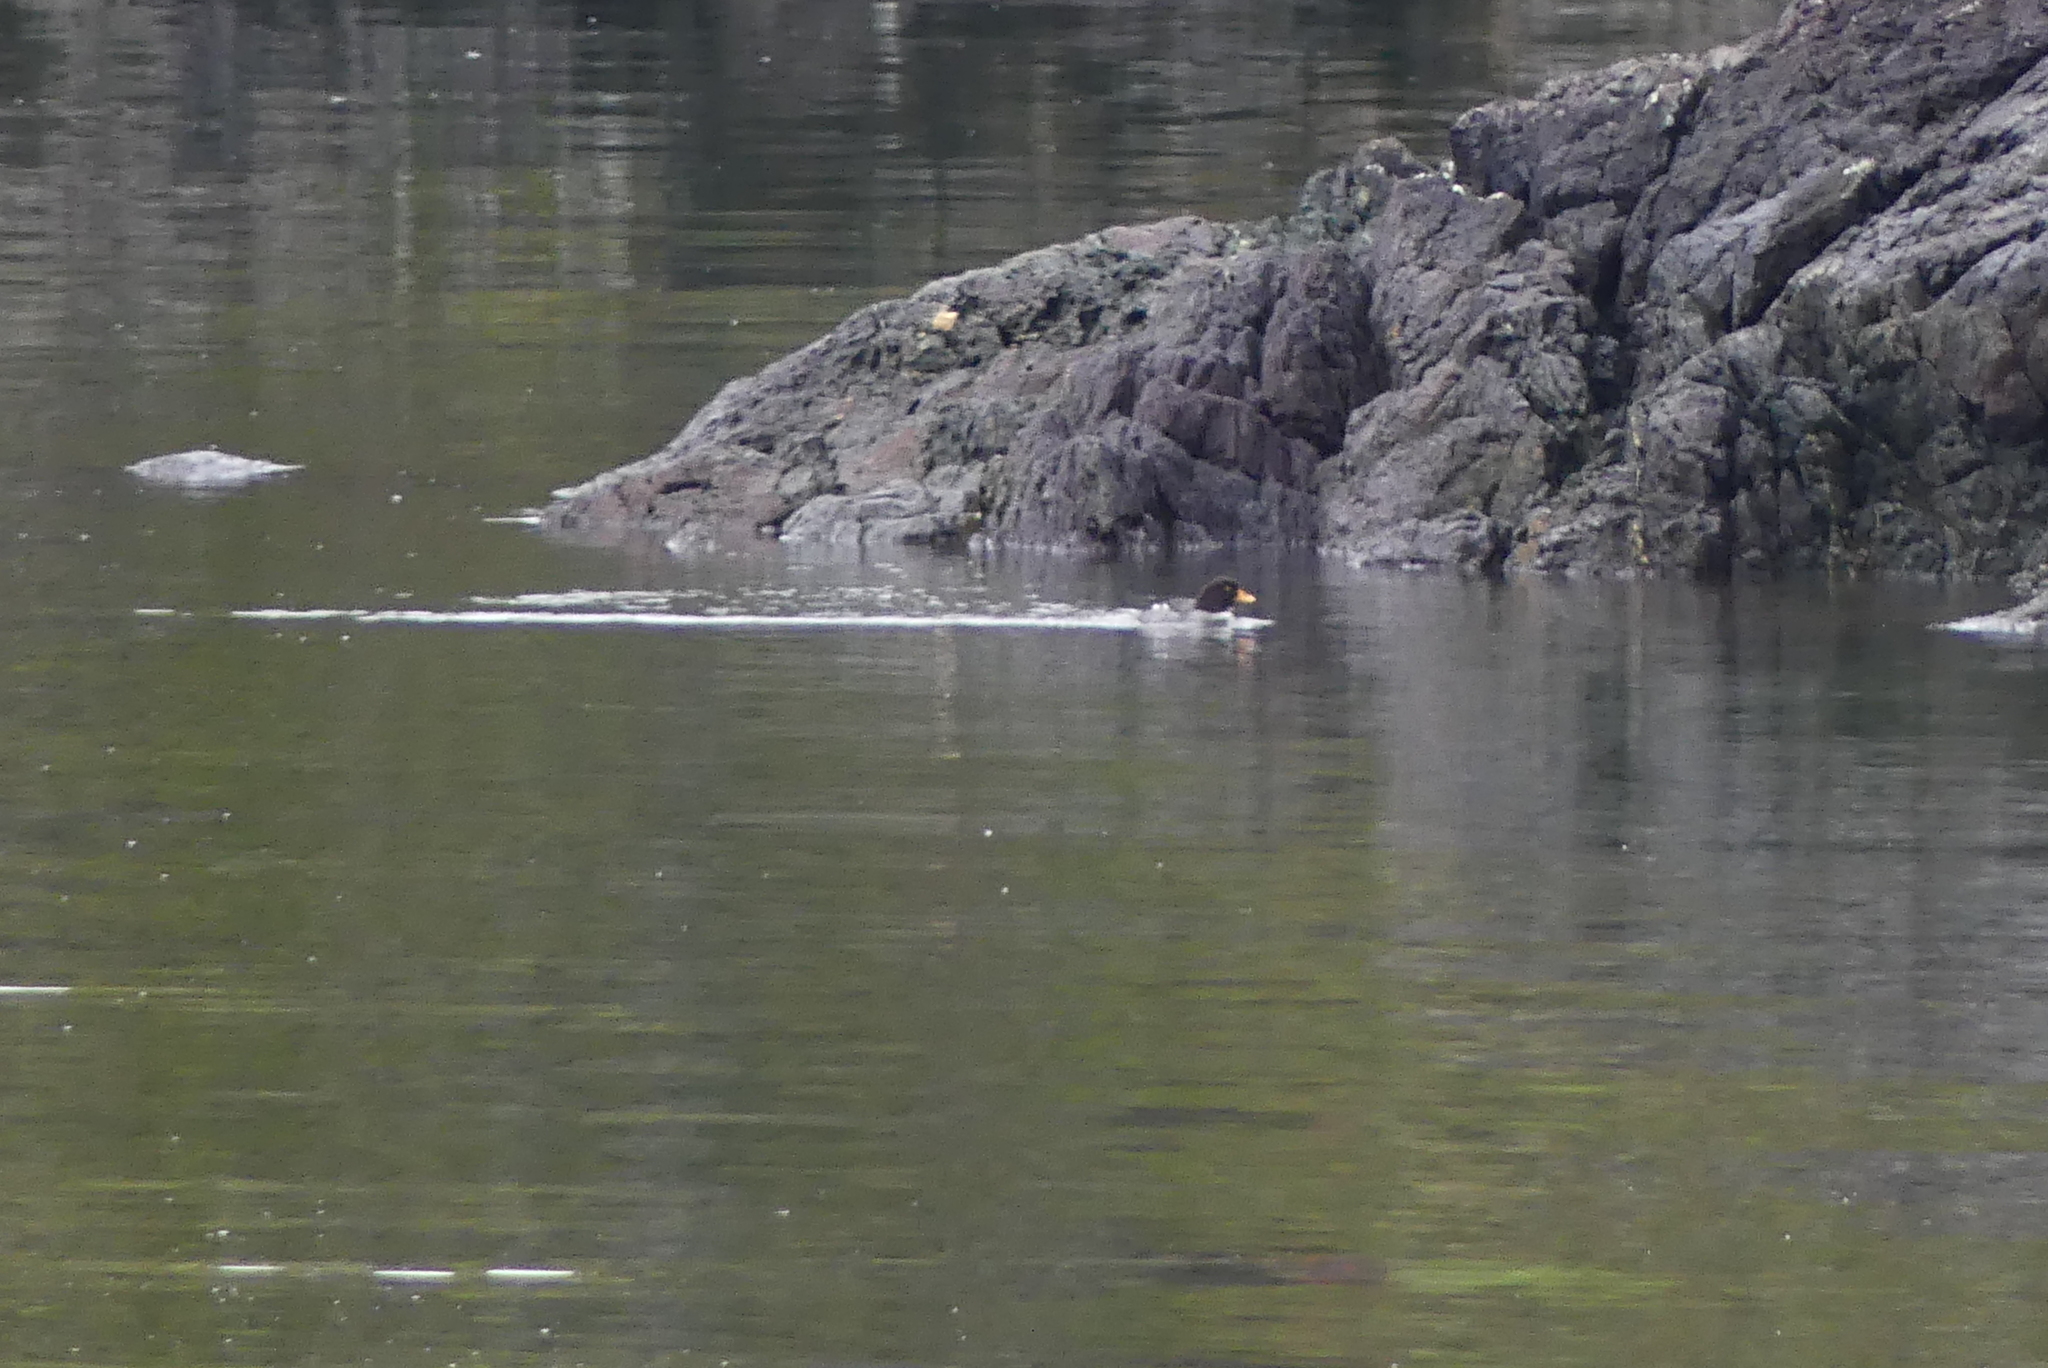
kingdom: Animalia
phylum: Chordata
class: Aves
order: Anseriformes
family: Anatidae
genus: Bucephala
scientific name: Bucephala islandica
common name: Barrow's goldeneye
